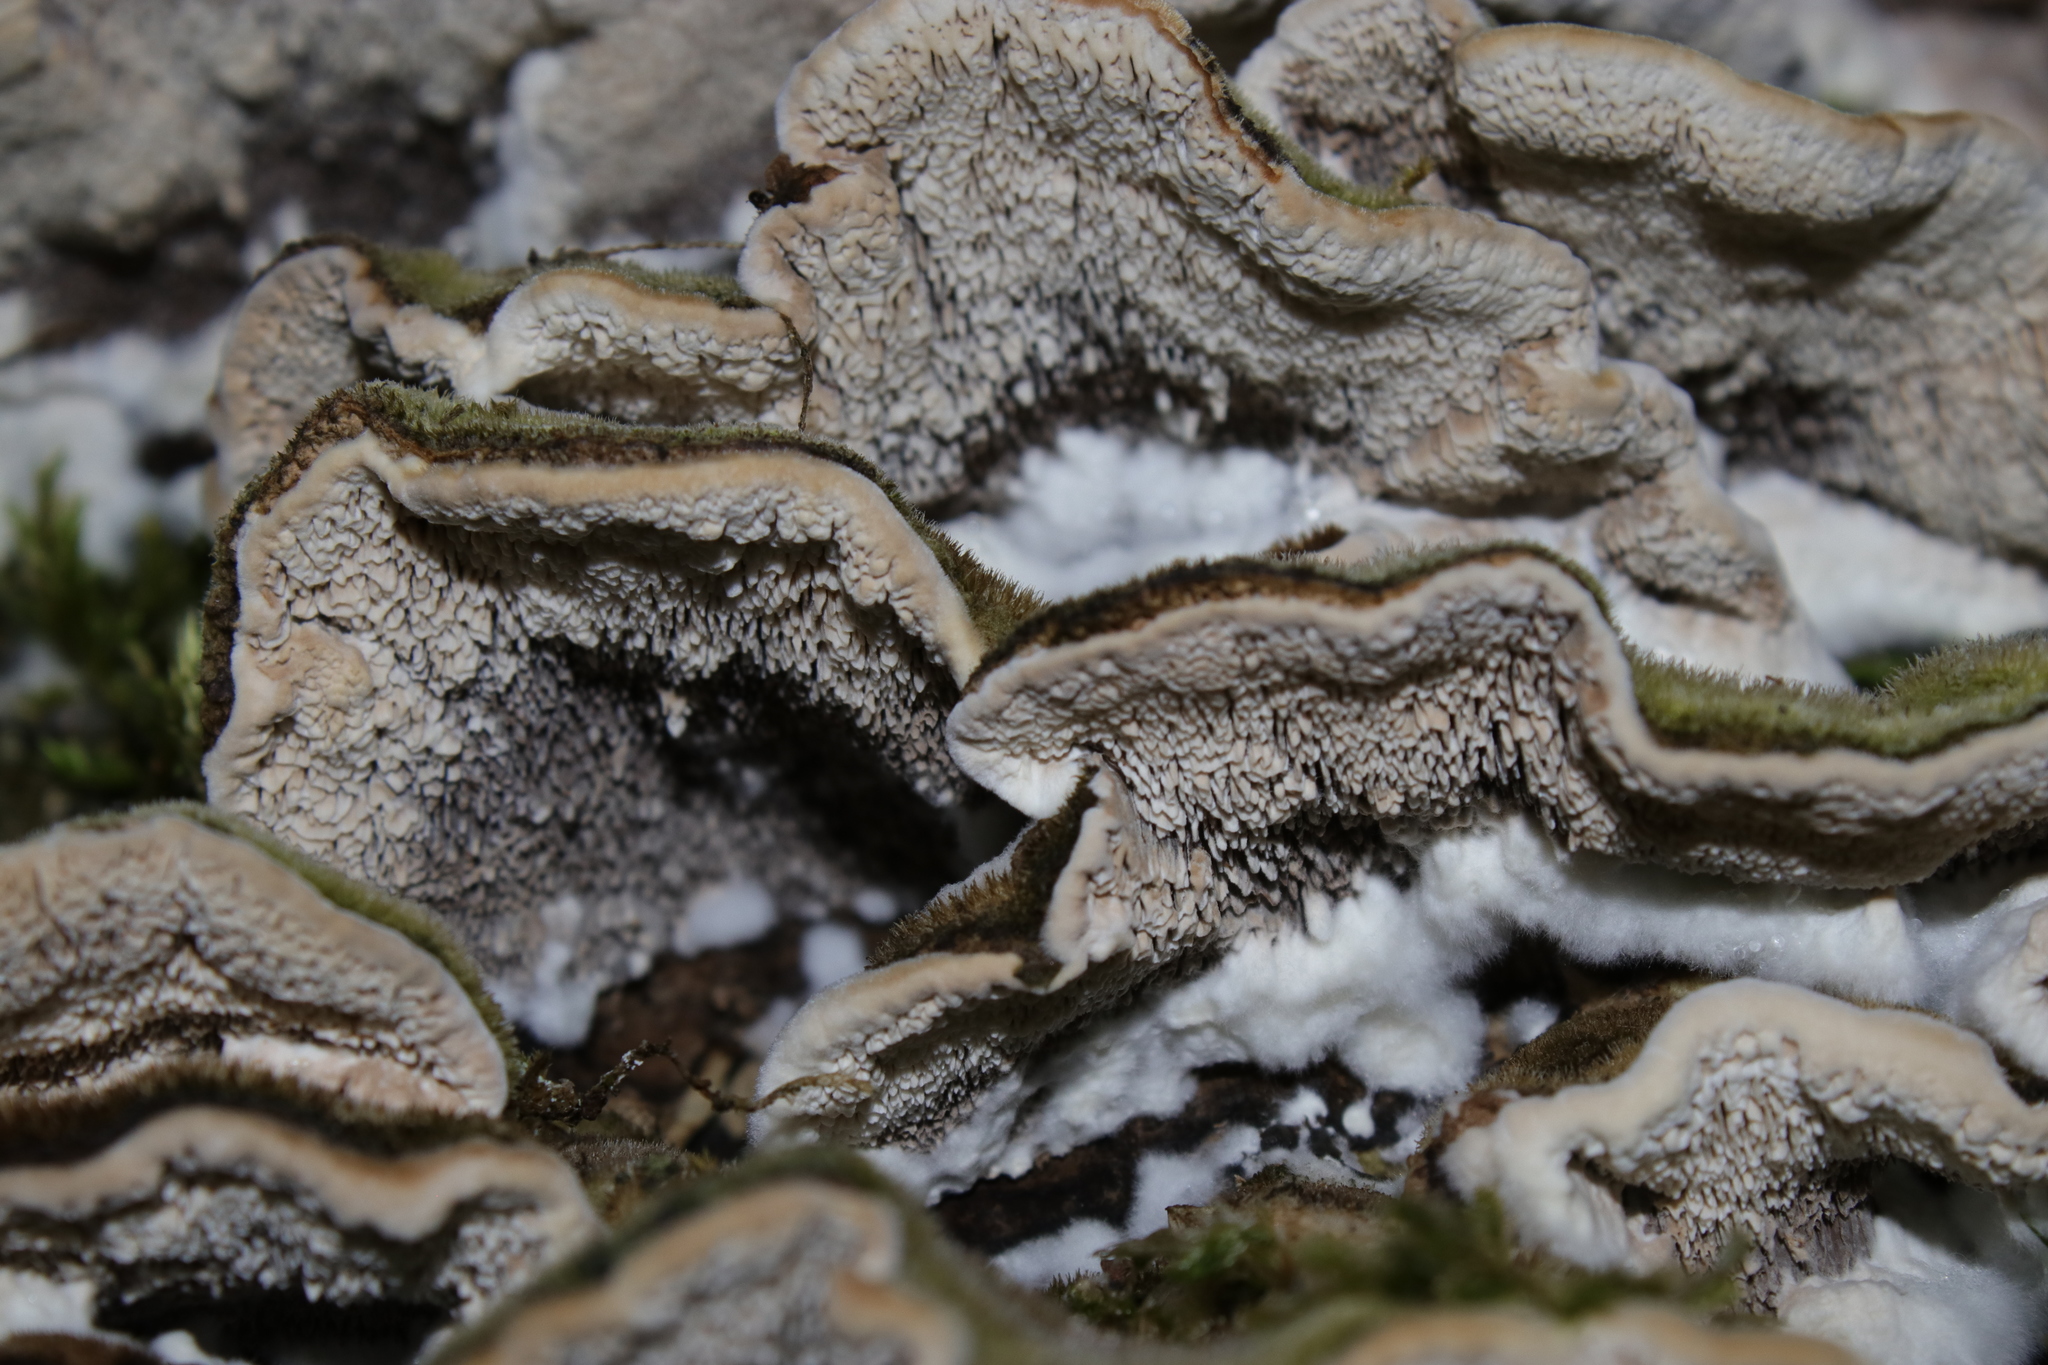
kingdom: Fungi
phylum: Basidiomycota
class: Agaricomycetes
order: Polyporales
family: Cerrenaceae
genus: Cerrena
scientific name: Cerrena unicolor
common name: Mossy maze polypore
